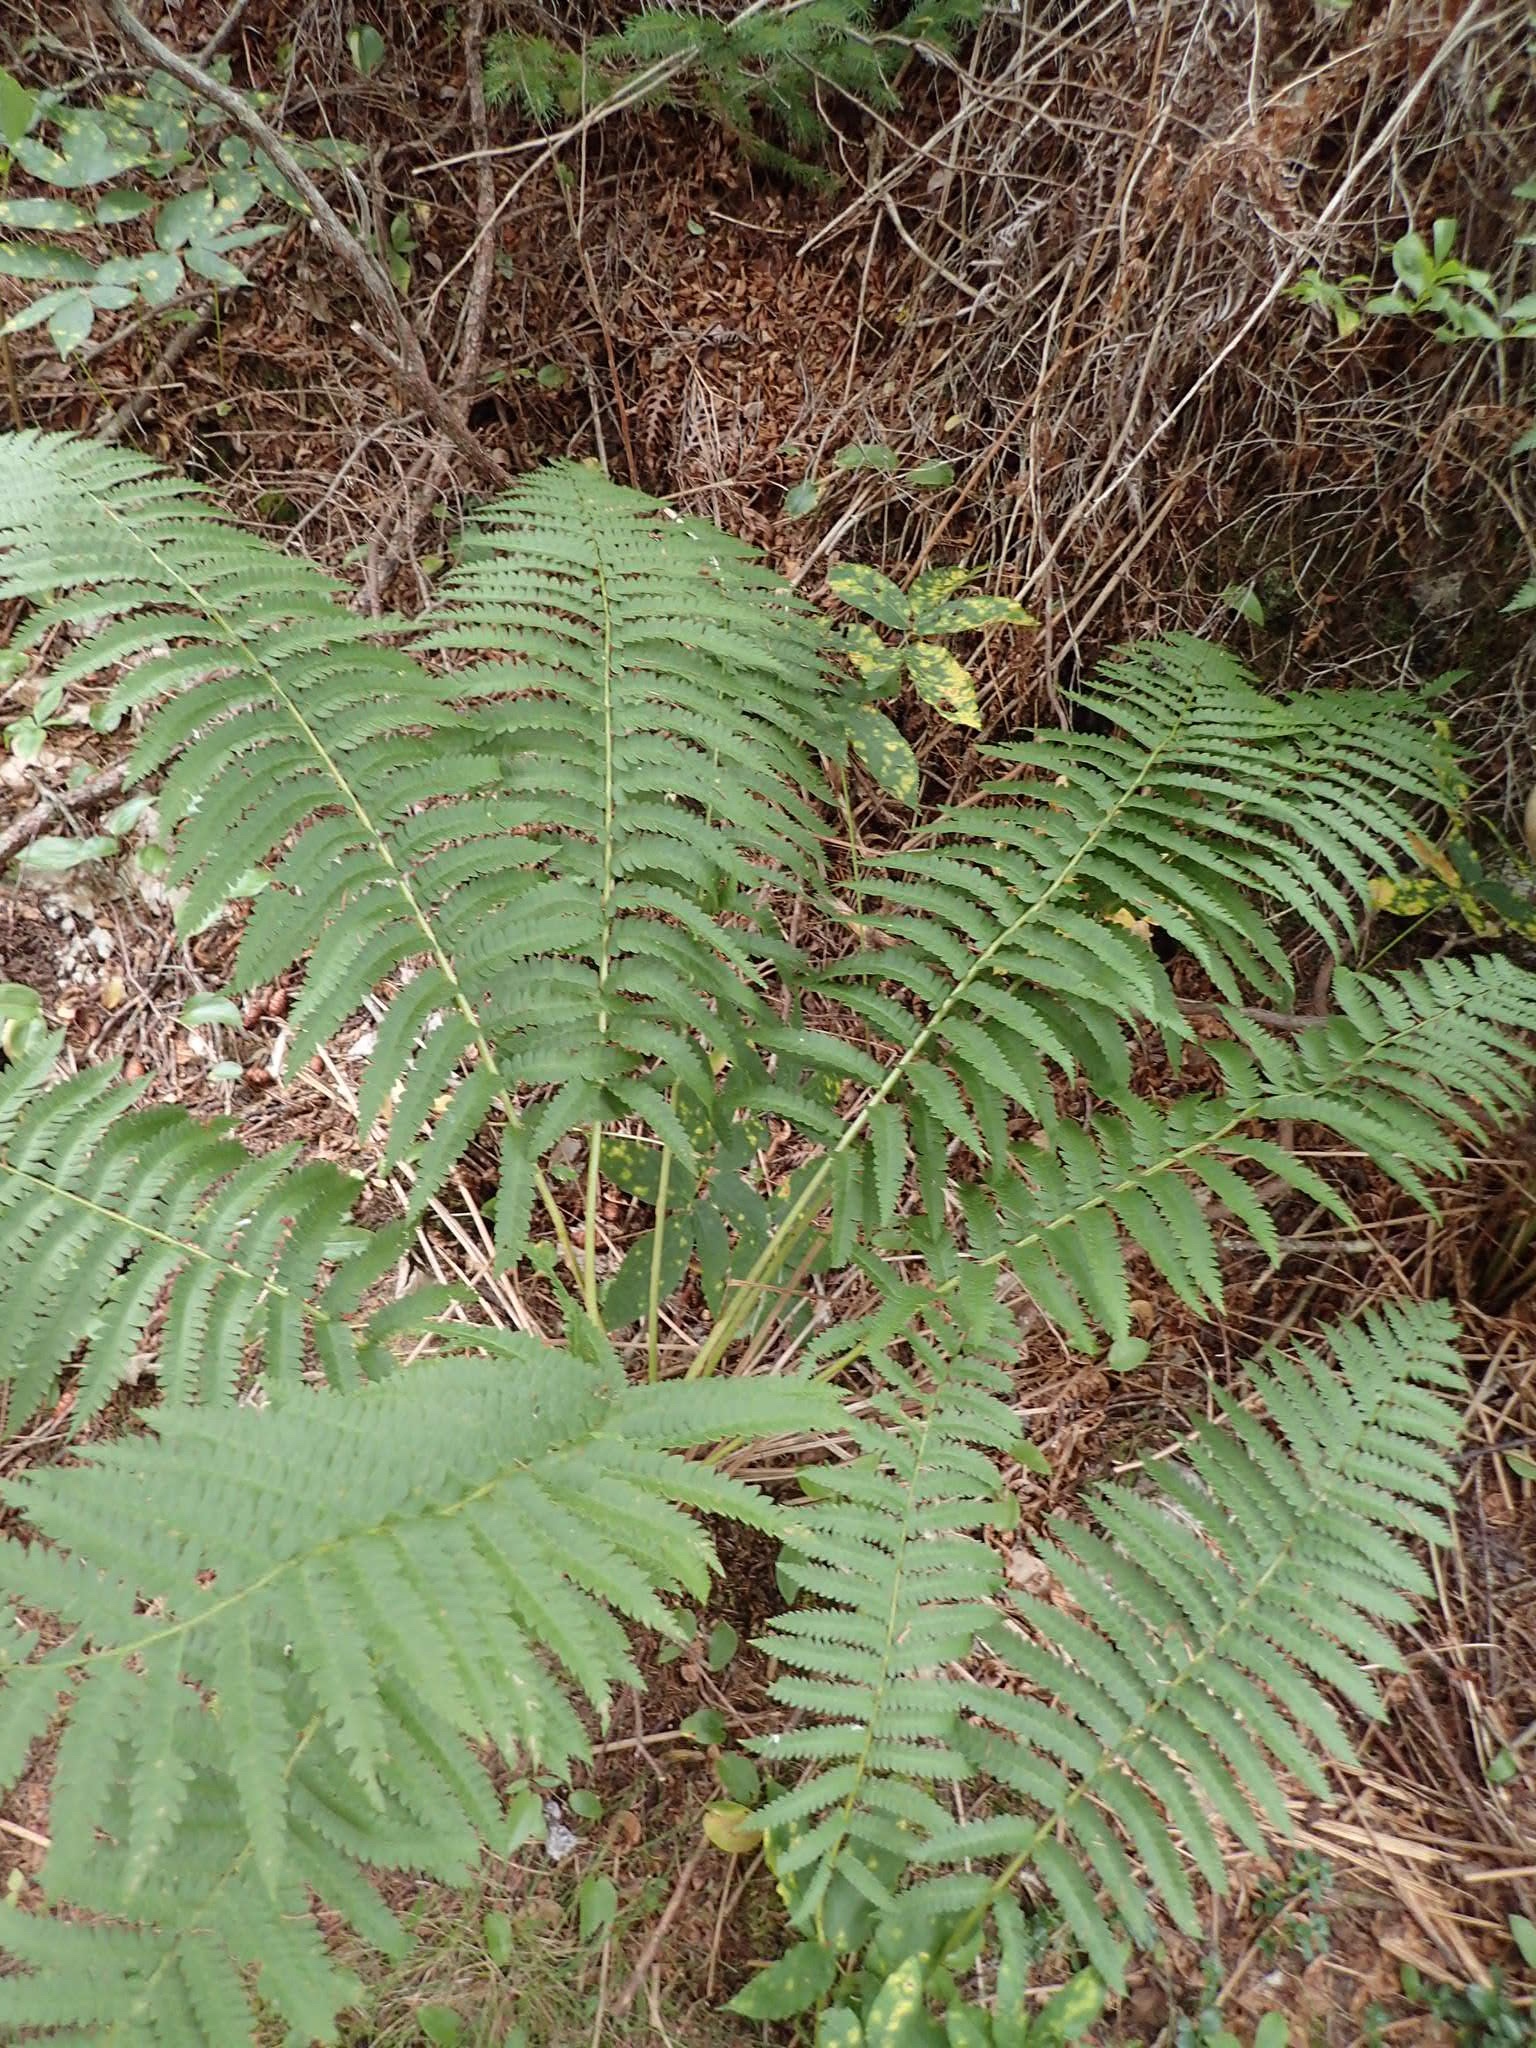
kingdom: Plantae
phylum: Tracheophyta
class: Polypodiopsida
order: Osmundales
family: Osmundaceae
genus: Osmundastrum
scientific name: Osmundastrum cinnamomeum
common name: Cinnamon fern
